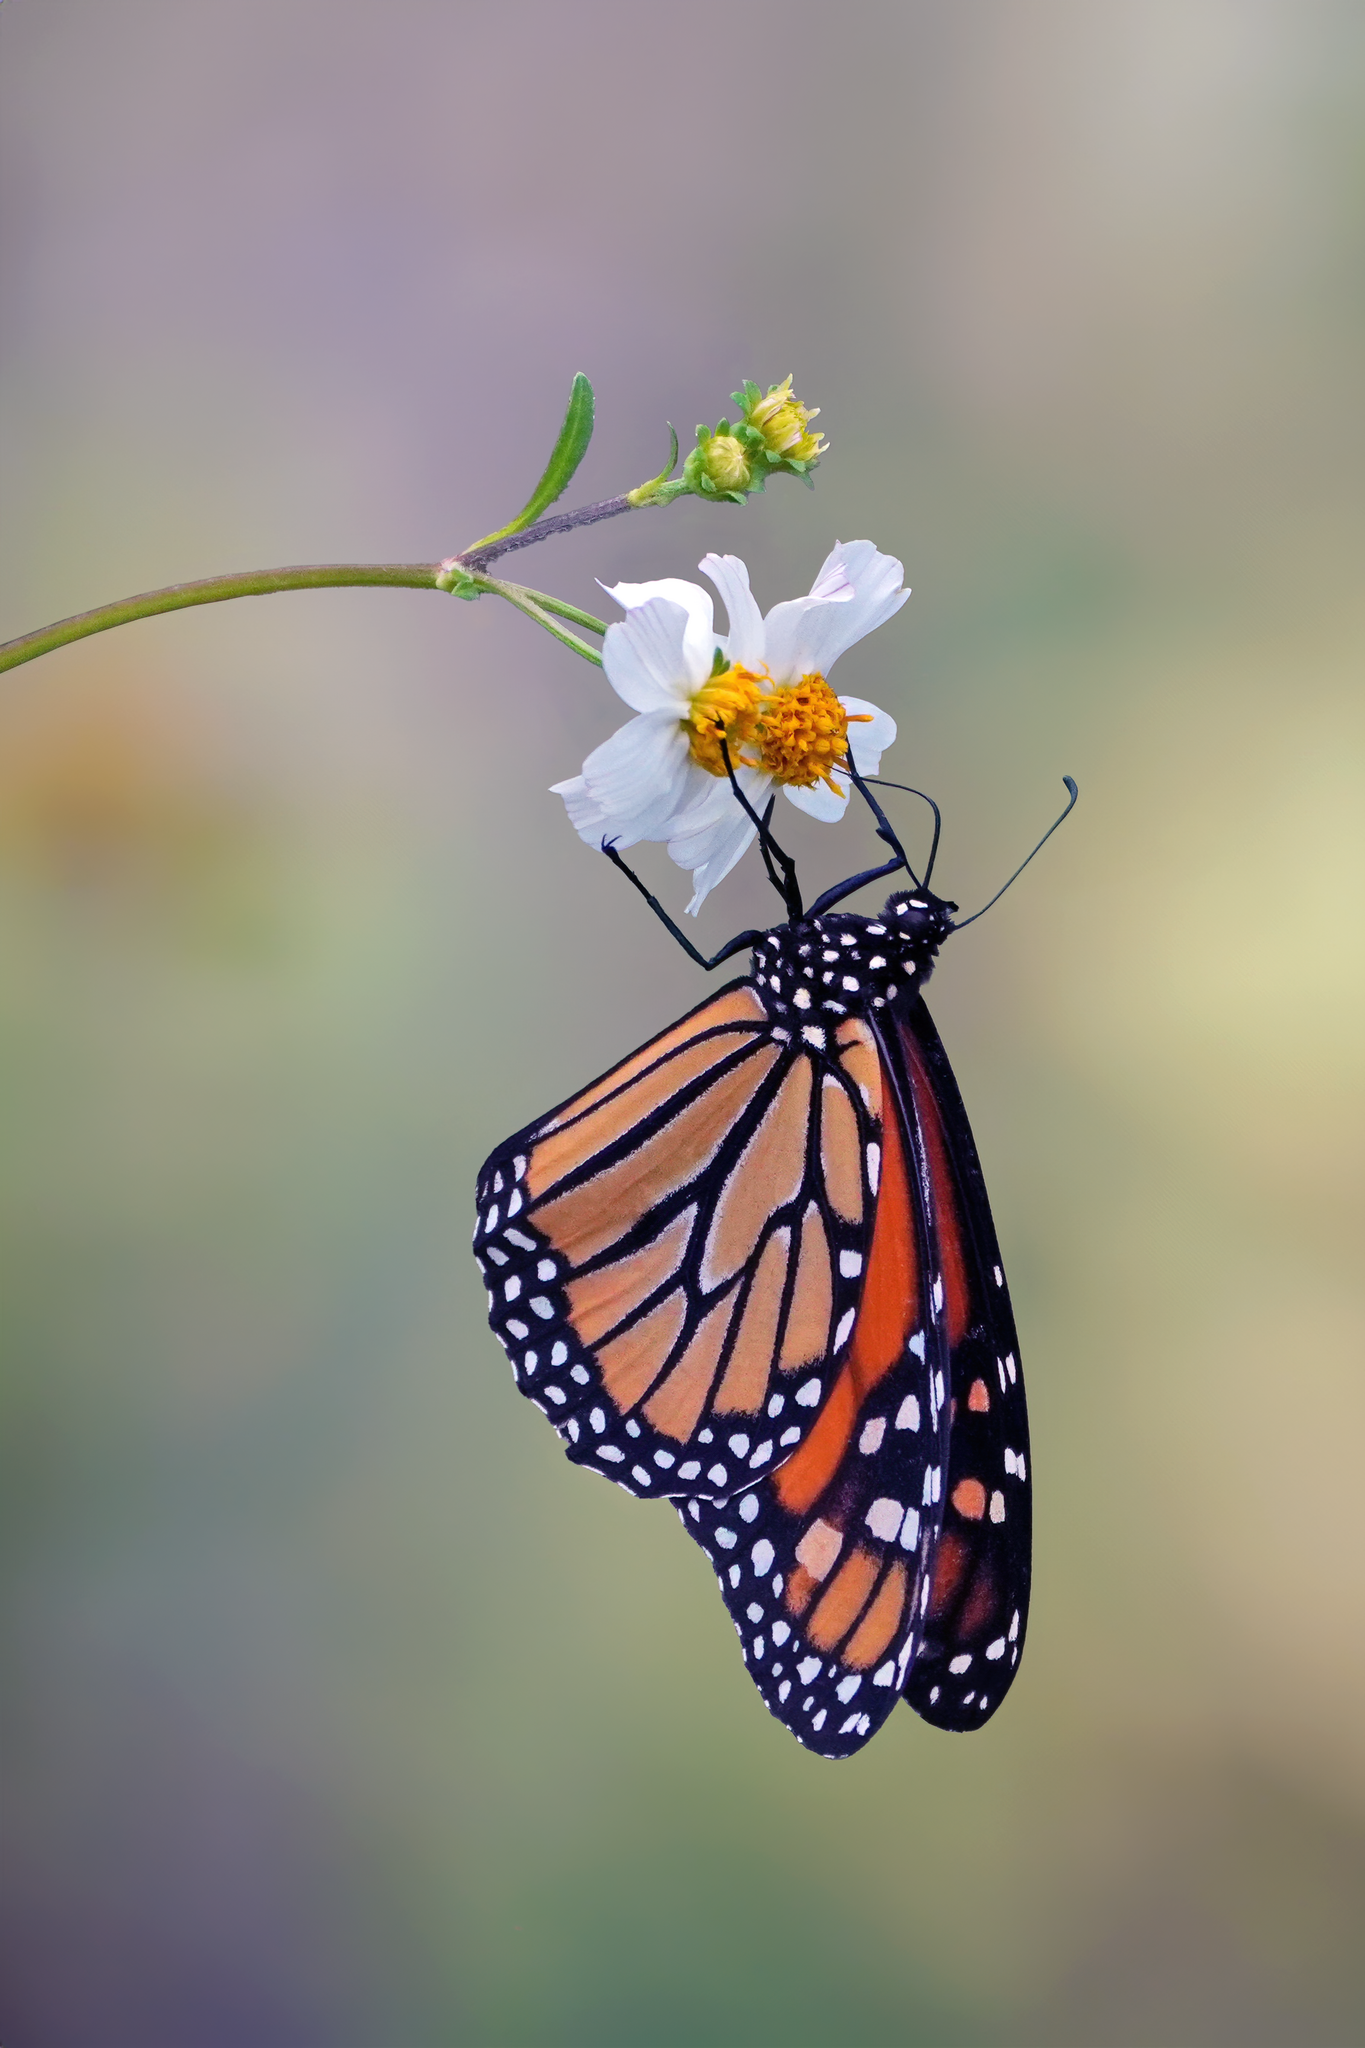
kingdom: Animalia
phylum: Arthropoda
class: Insecta
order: Lepidoptera
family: Nymphalidae
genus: Danaus
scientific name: Danaus plexippus
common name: Monarch
